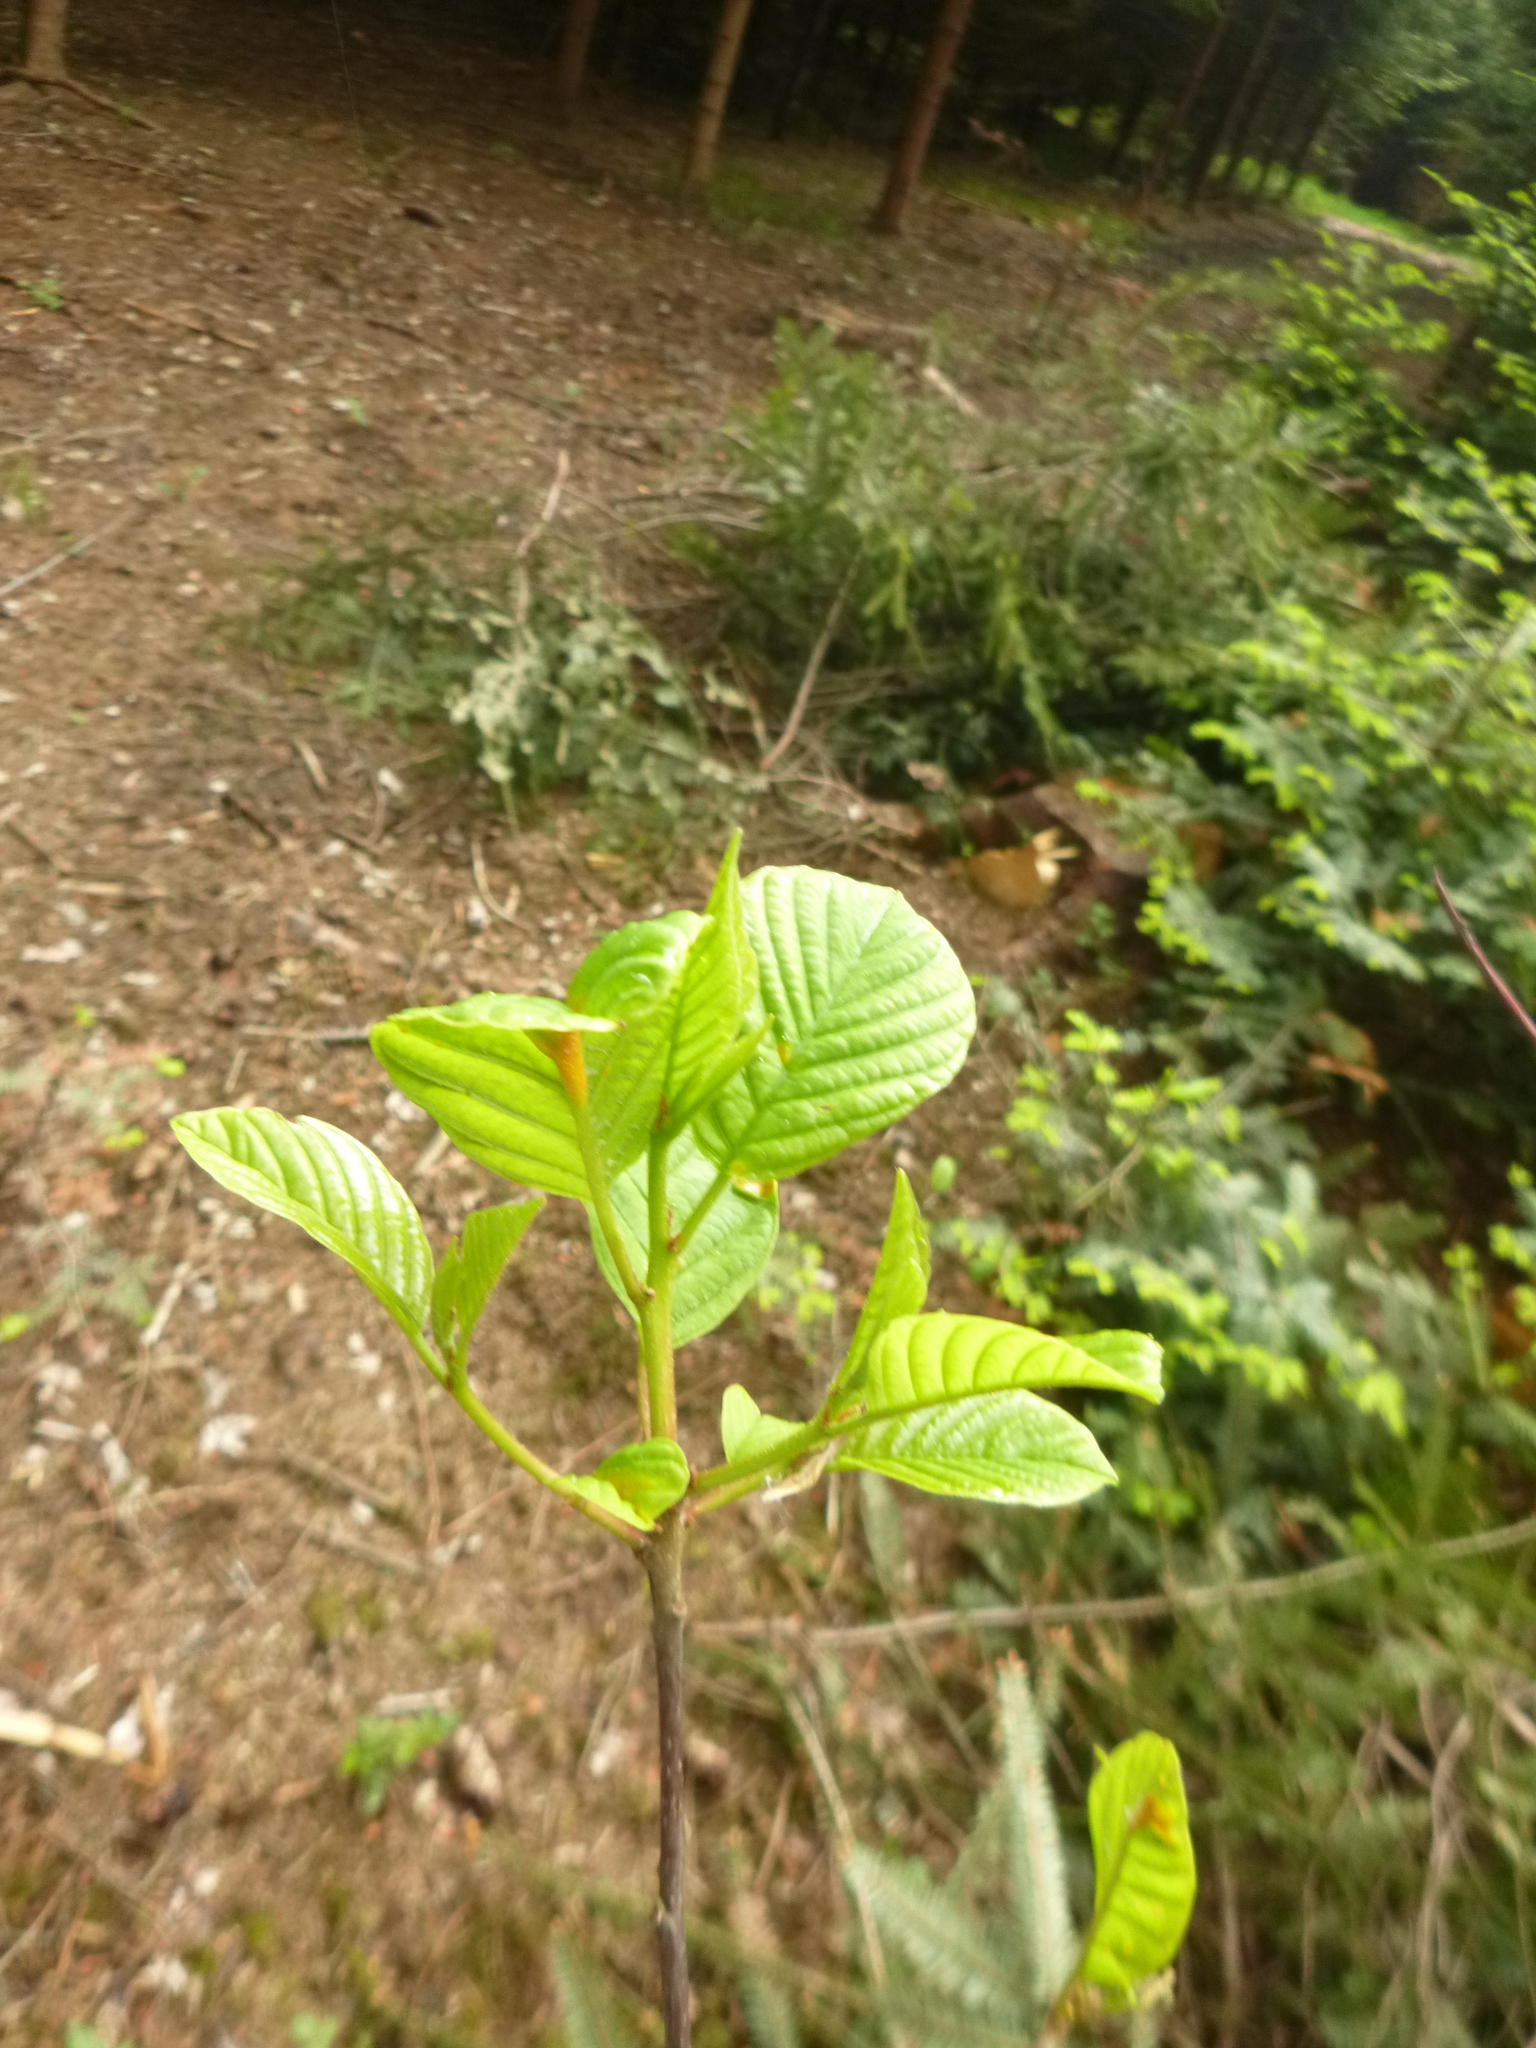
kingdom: Plantae
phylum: Tracheophyta
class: Magnoliopsida
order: Rosales
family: Rhamnaceae
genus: Frangula
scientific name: Frangula alnus
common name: Alder buckthorn
